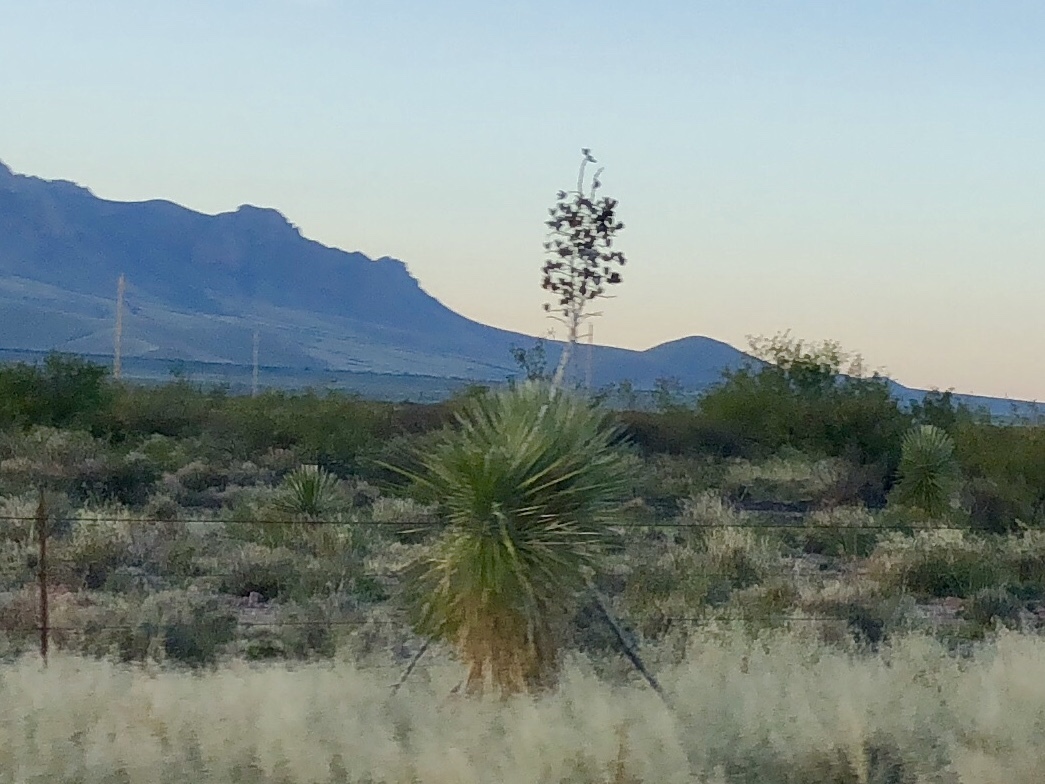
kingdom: Plantae
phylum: Tracheophyta
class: Liliopsida
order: Asparagales
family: Asparagaceae
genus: Yucca
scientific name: Yucca elata
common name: Palmella
